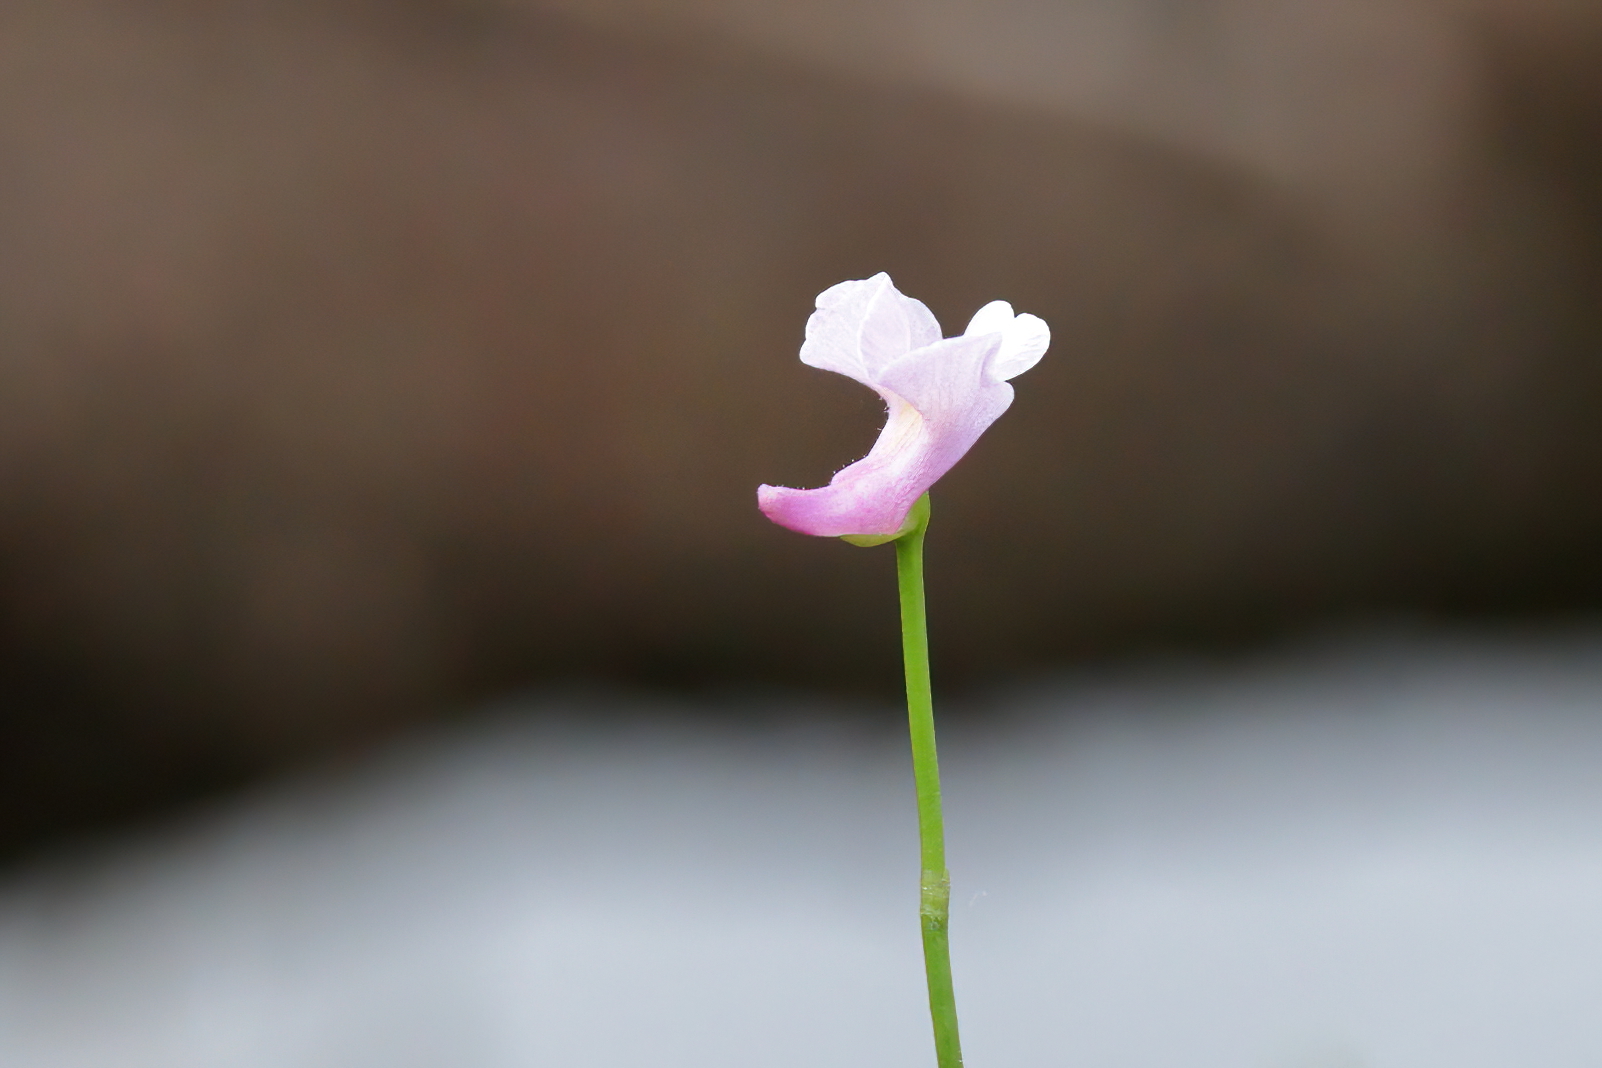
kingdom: Plantae
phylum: Tracheophyta
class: Magnoliopsida
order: Lamiales
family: Lentibulariaceae
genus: Utricularia
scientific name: Utricularia resupinata
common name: Northeastern bladderwort
